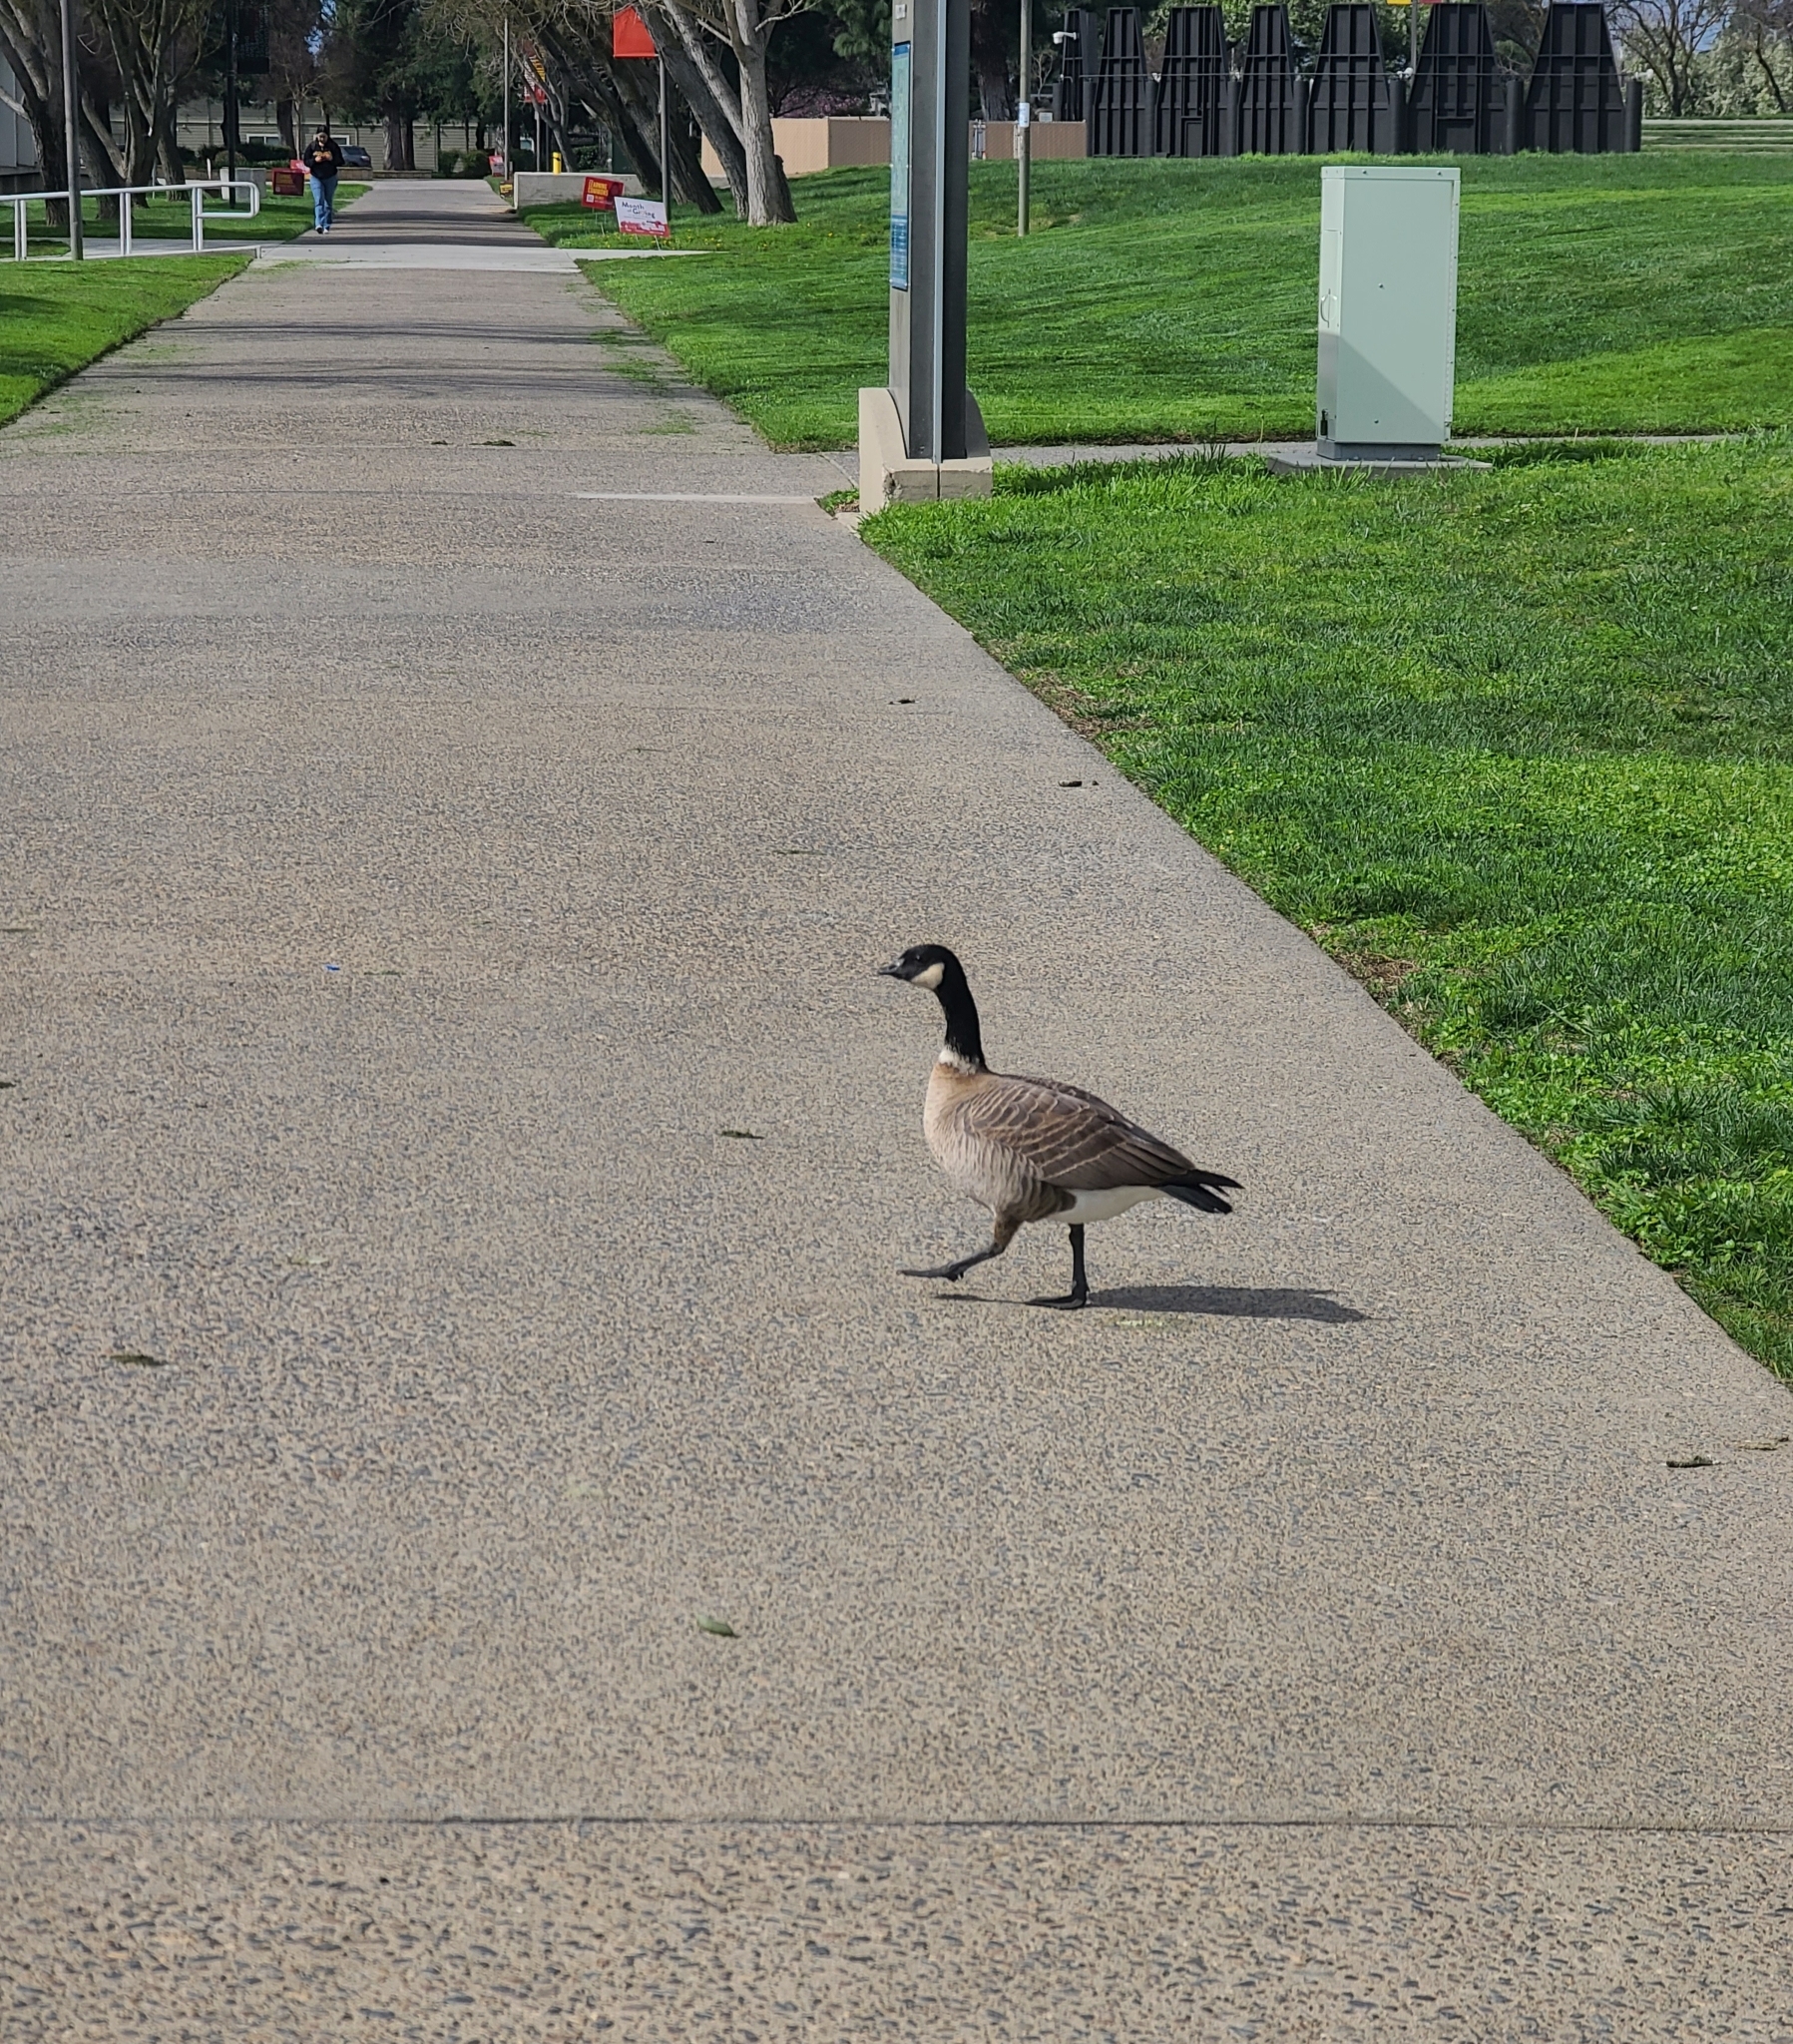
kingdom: Animalia
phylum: Chordata
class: Aves
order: Anseriformes
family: Anatidae
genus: Branta
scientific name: Branta hutchinsii
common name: Cackling goose
